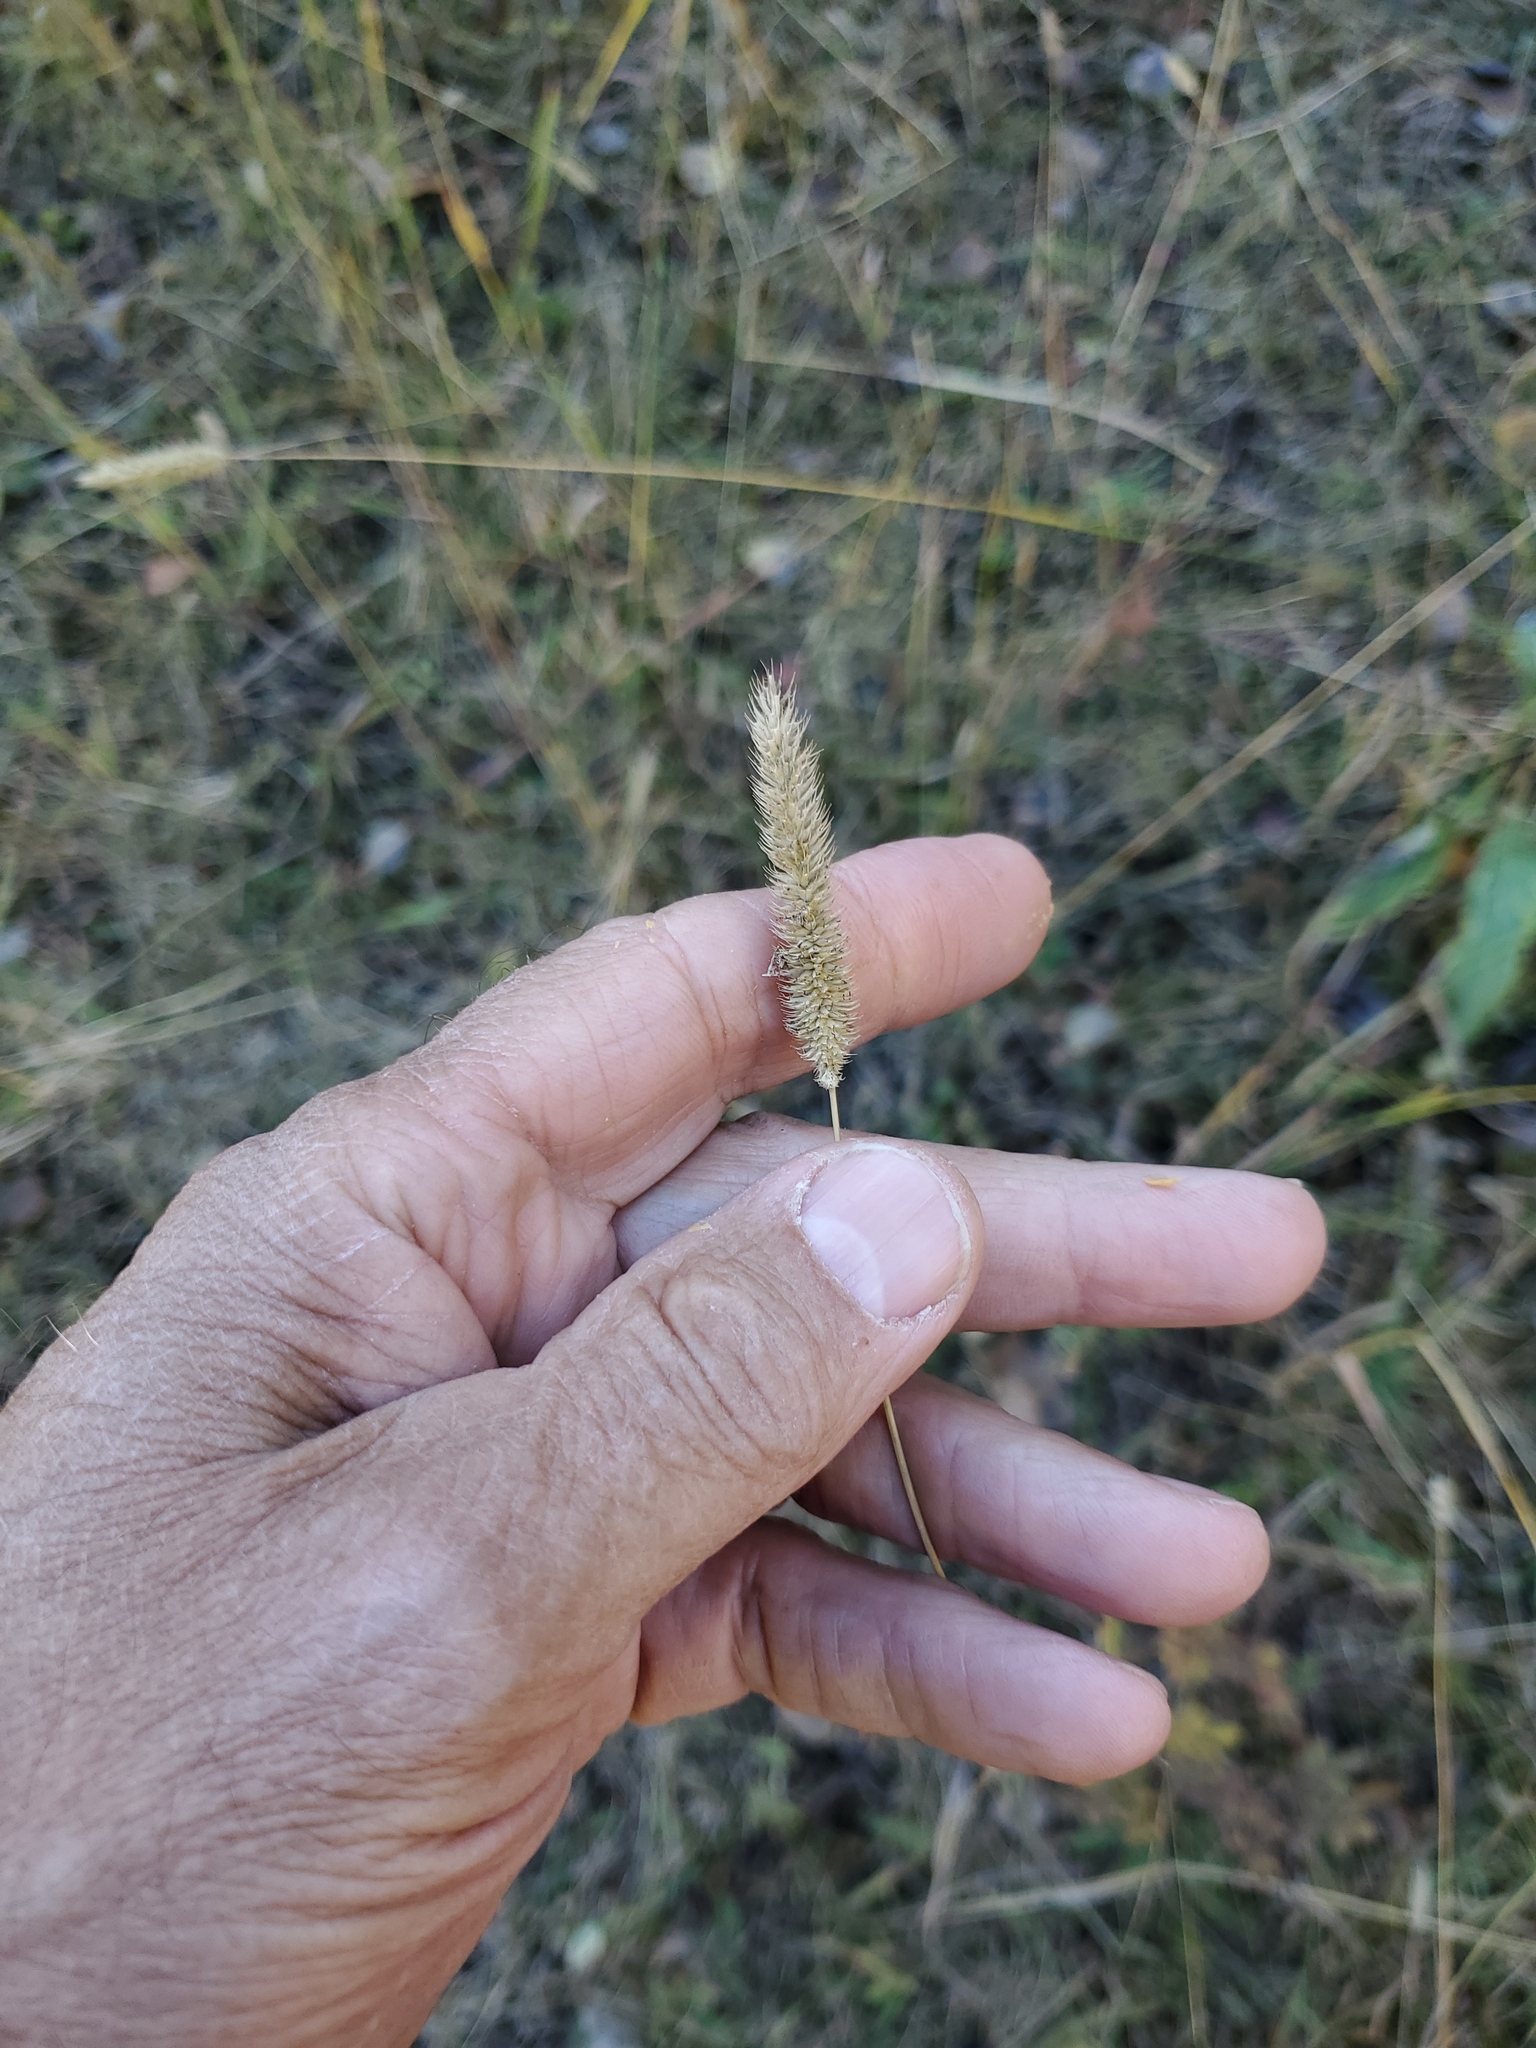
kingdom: Plantae
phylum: Tracheophyta
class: Liliopsida
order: Poales
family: Poaceae
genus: Phleum
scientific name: Phleum pratense
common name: Timothy grass
